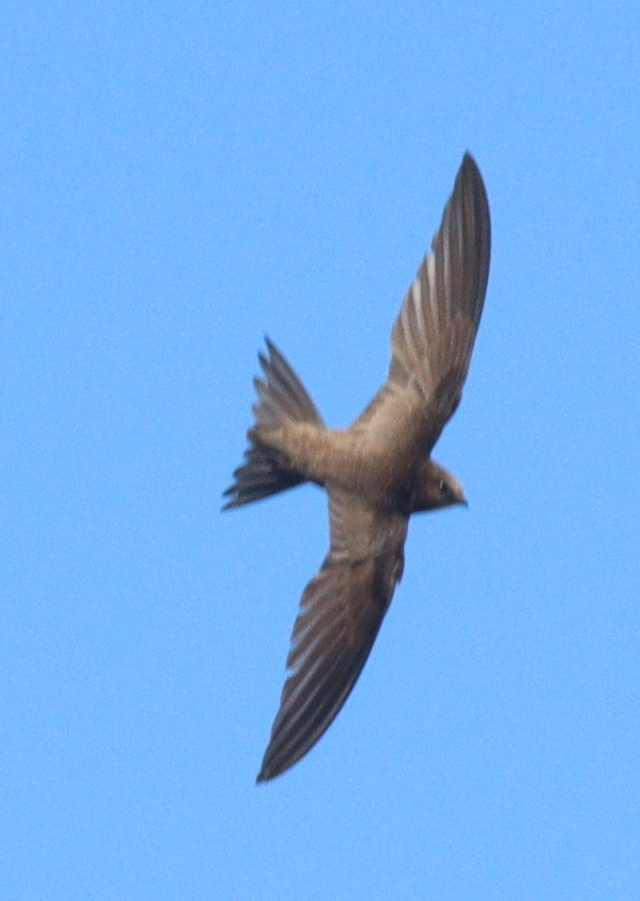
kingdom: Animalia
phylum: Chordata
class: Aves
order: Apodiformes
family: Apodidae
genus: Apus
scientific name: Apus pallidus
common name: Pallid swift
